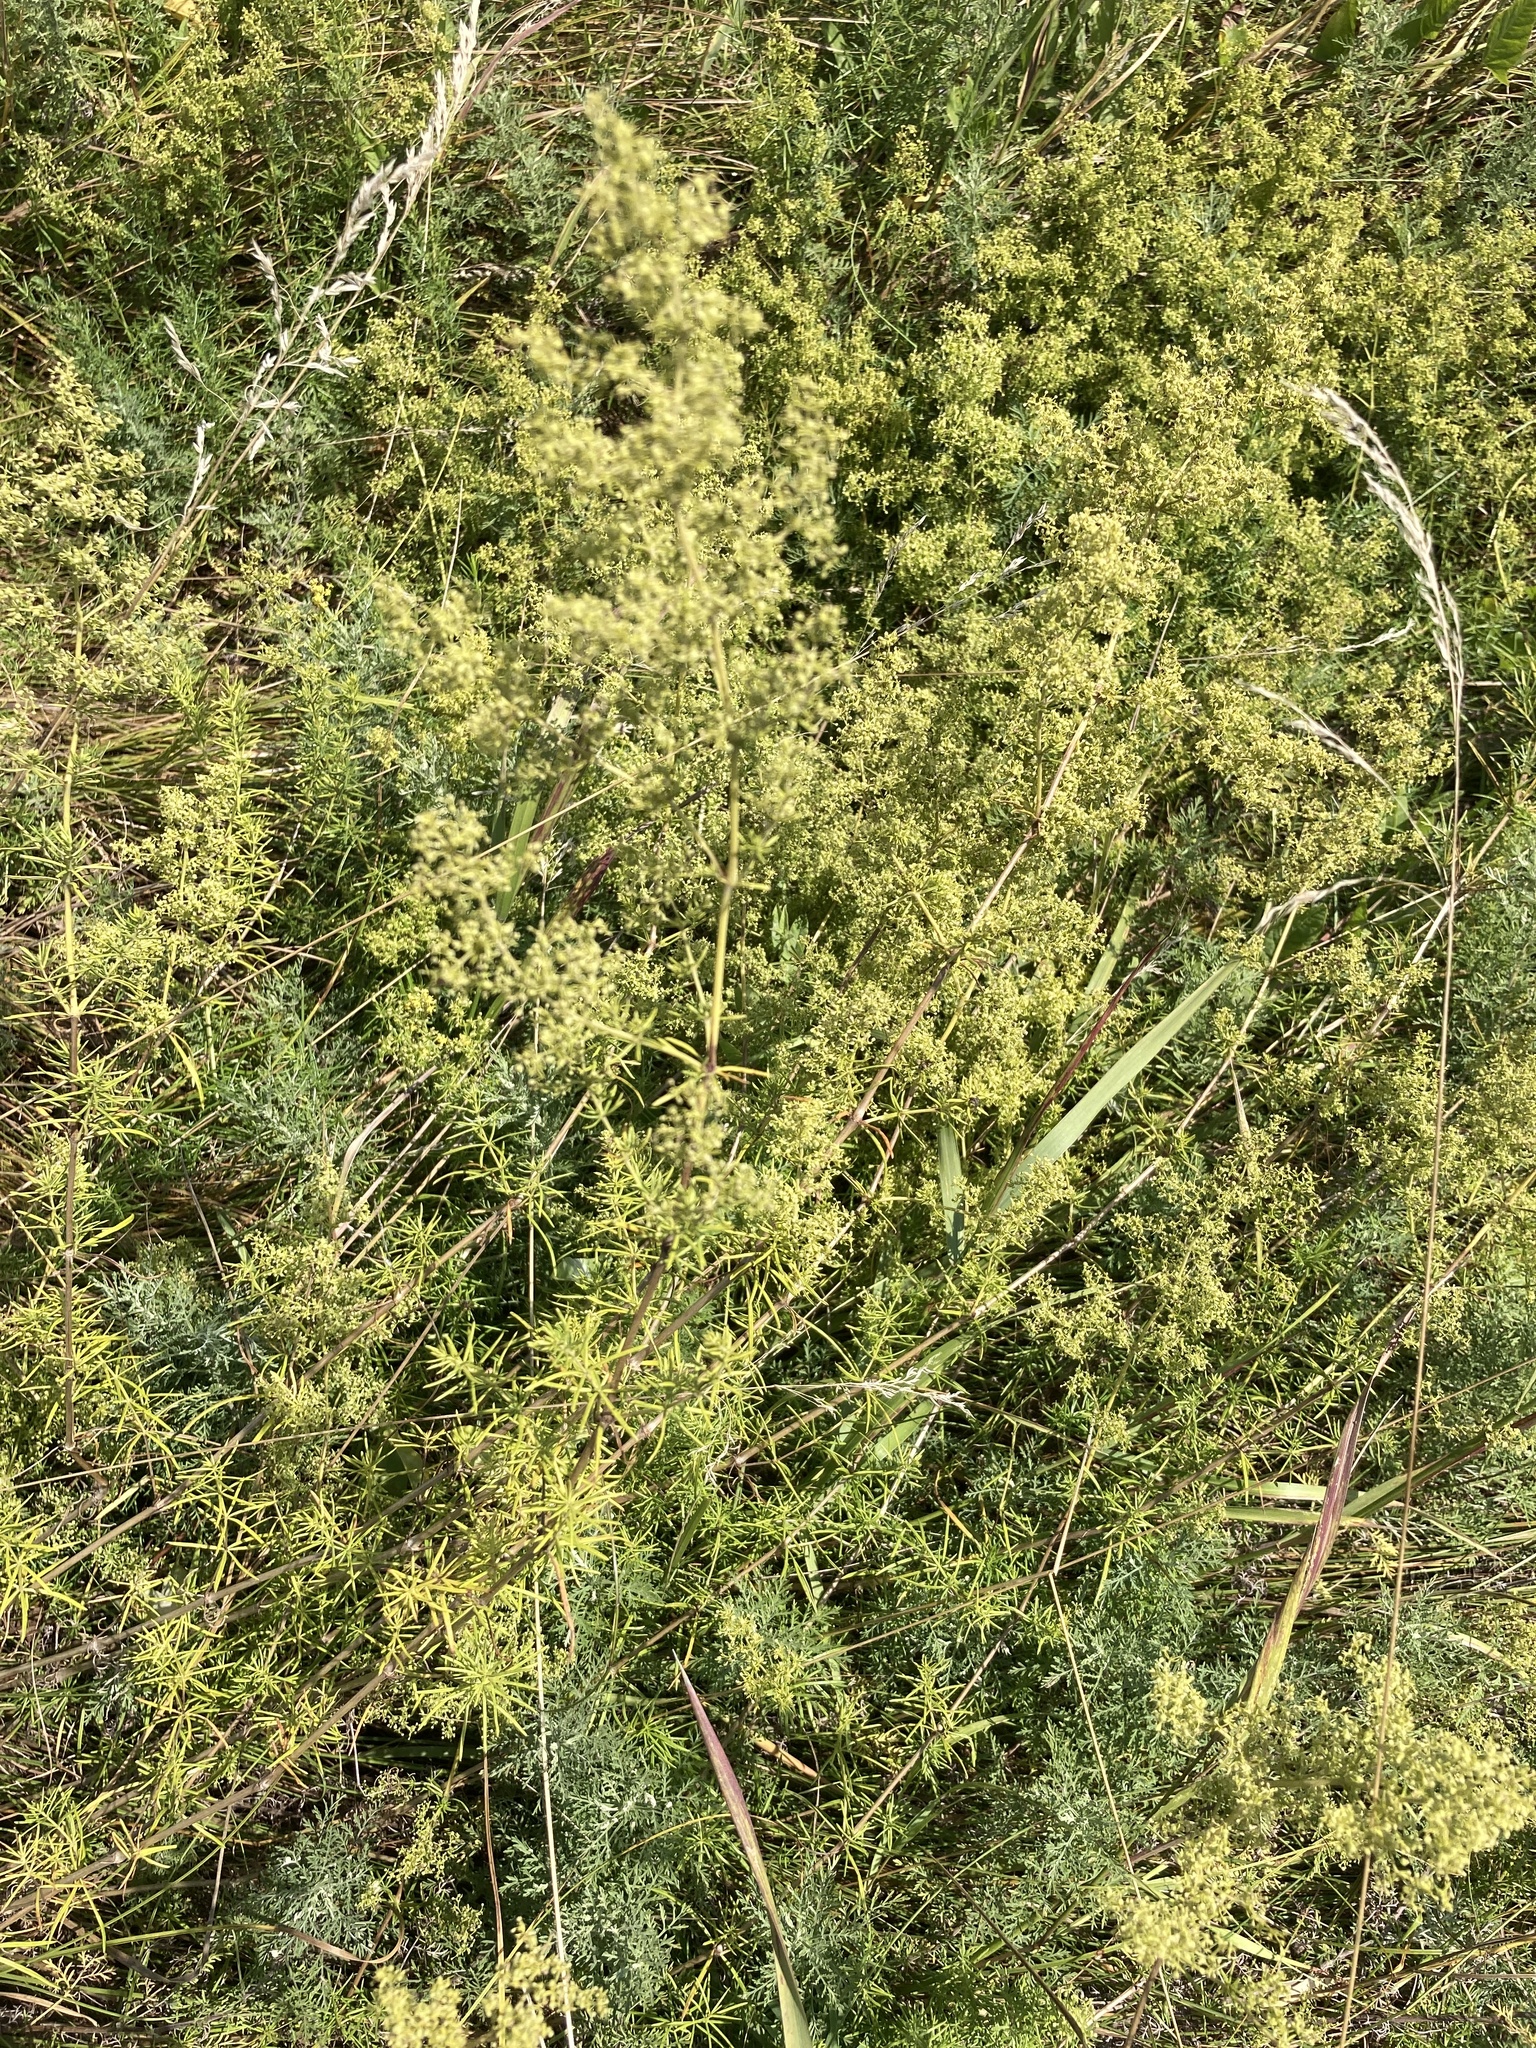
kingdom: Plantae
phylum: Tracheophyta
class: Magnoliopsida
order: Gentianales
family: Rubiaceae
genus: Galium
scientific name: Galium verum
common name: Lady's bedstraw
